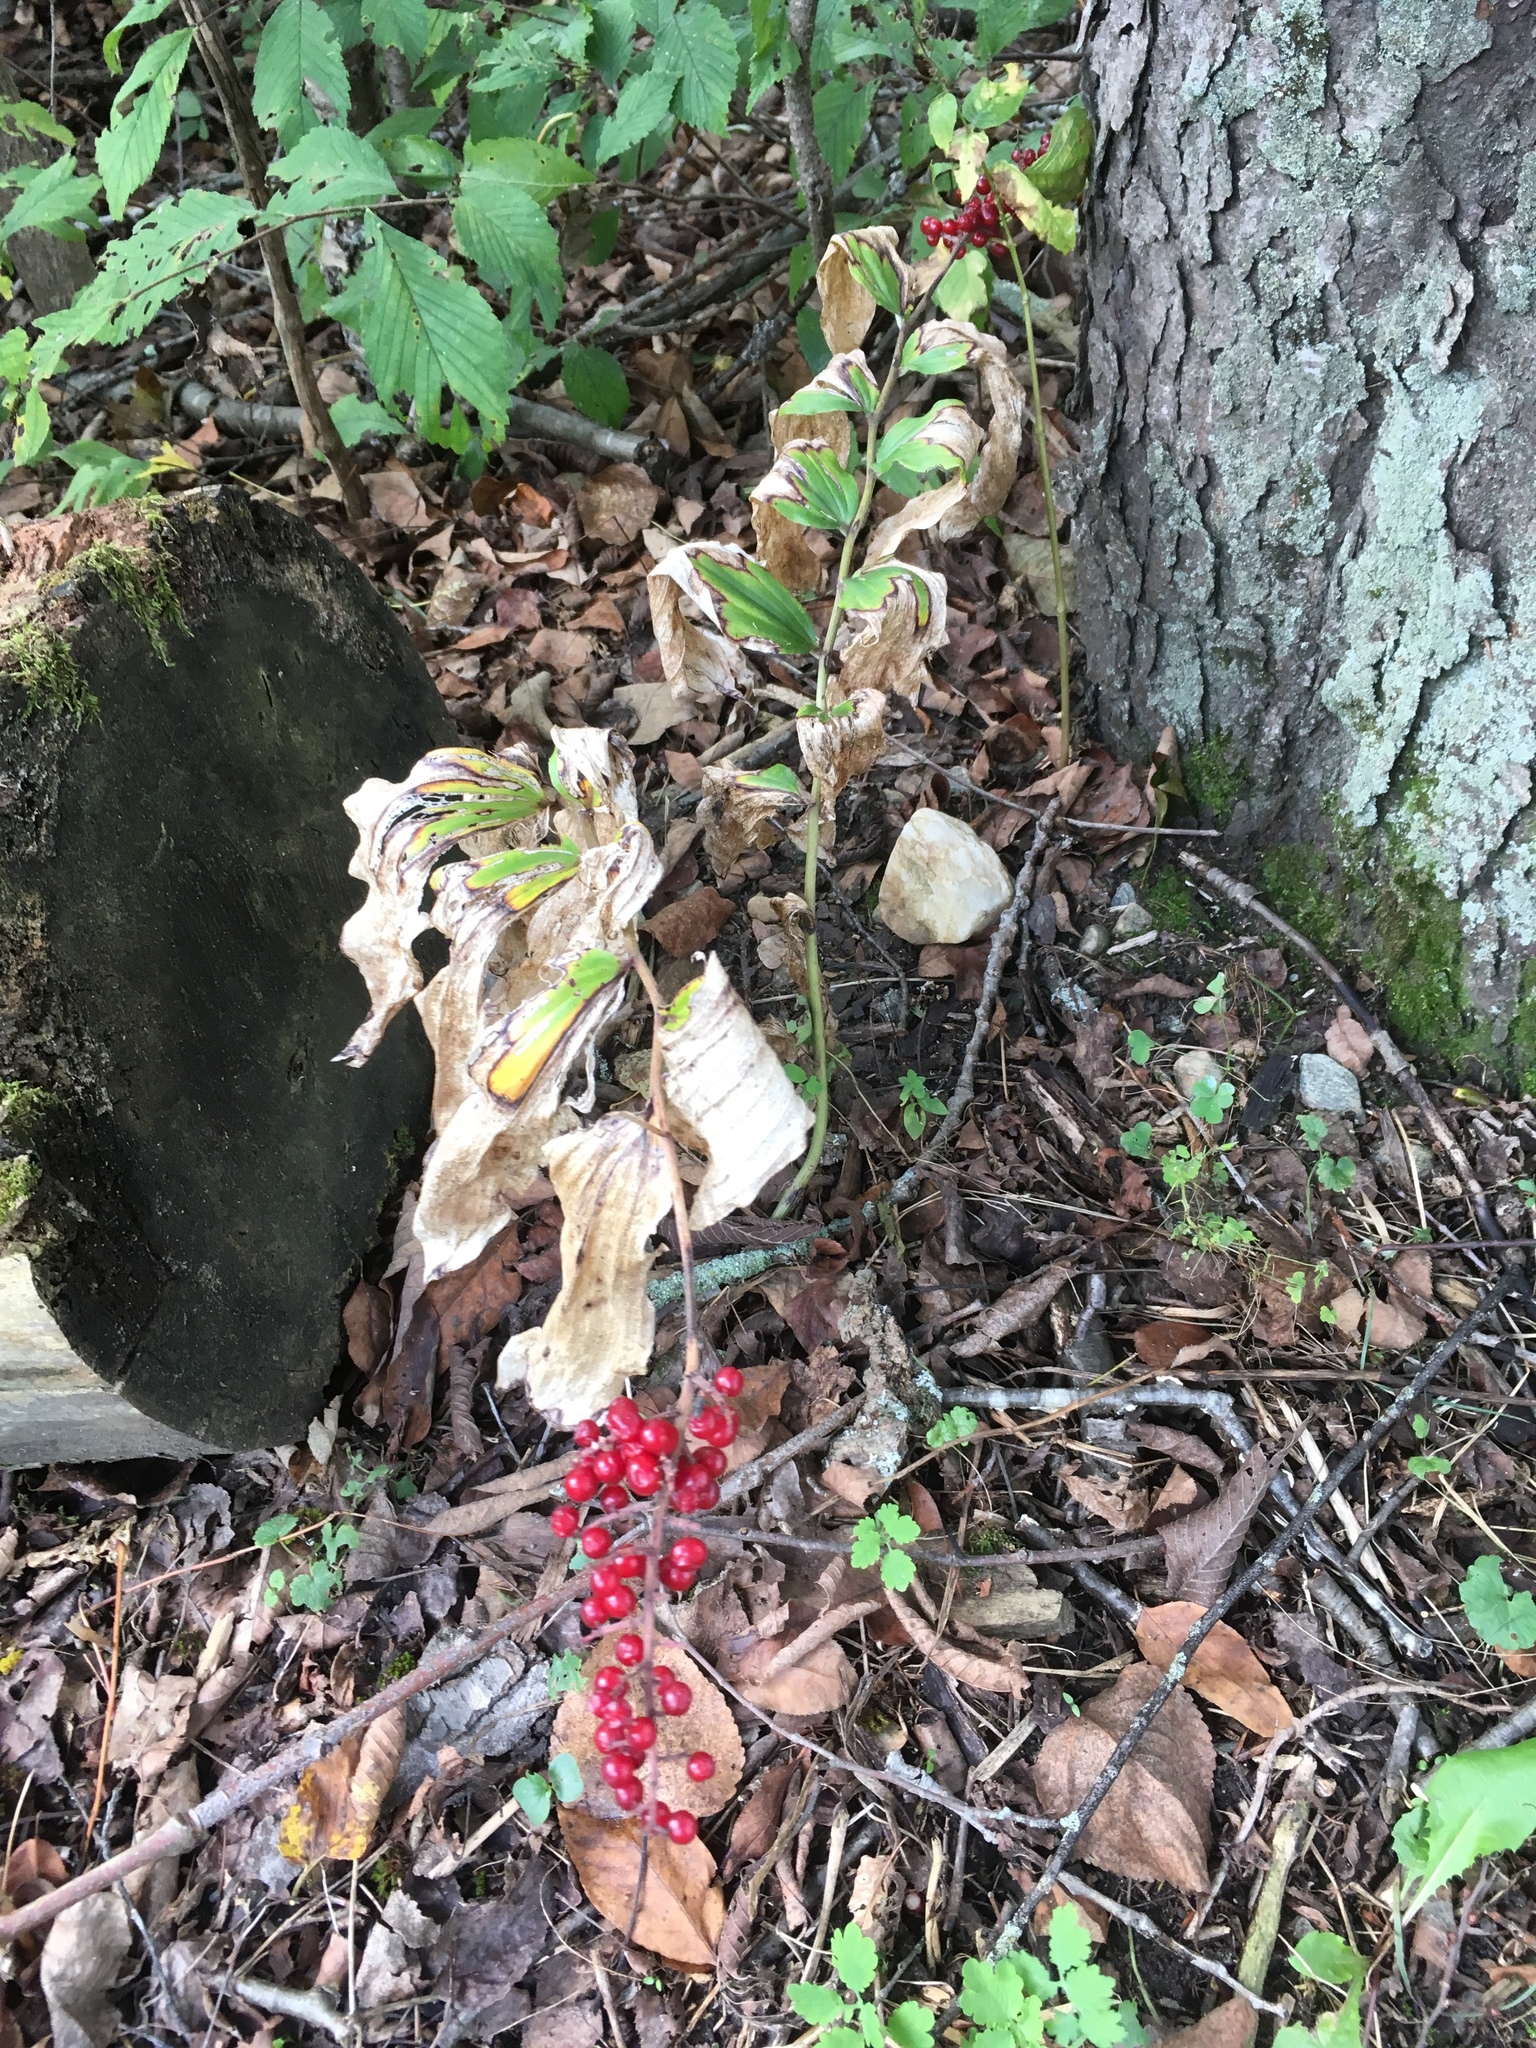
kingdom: Plantae
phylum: Tracheophyta
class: Liliopsida
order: Asparagales
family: Asparagaceae
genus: Maianthemum
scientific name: Maianthemum racemosum
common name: False spikenard
